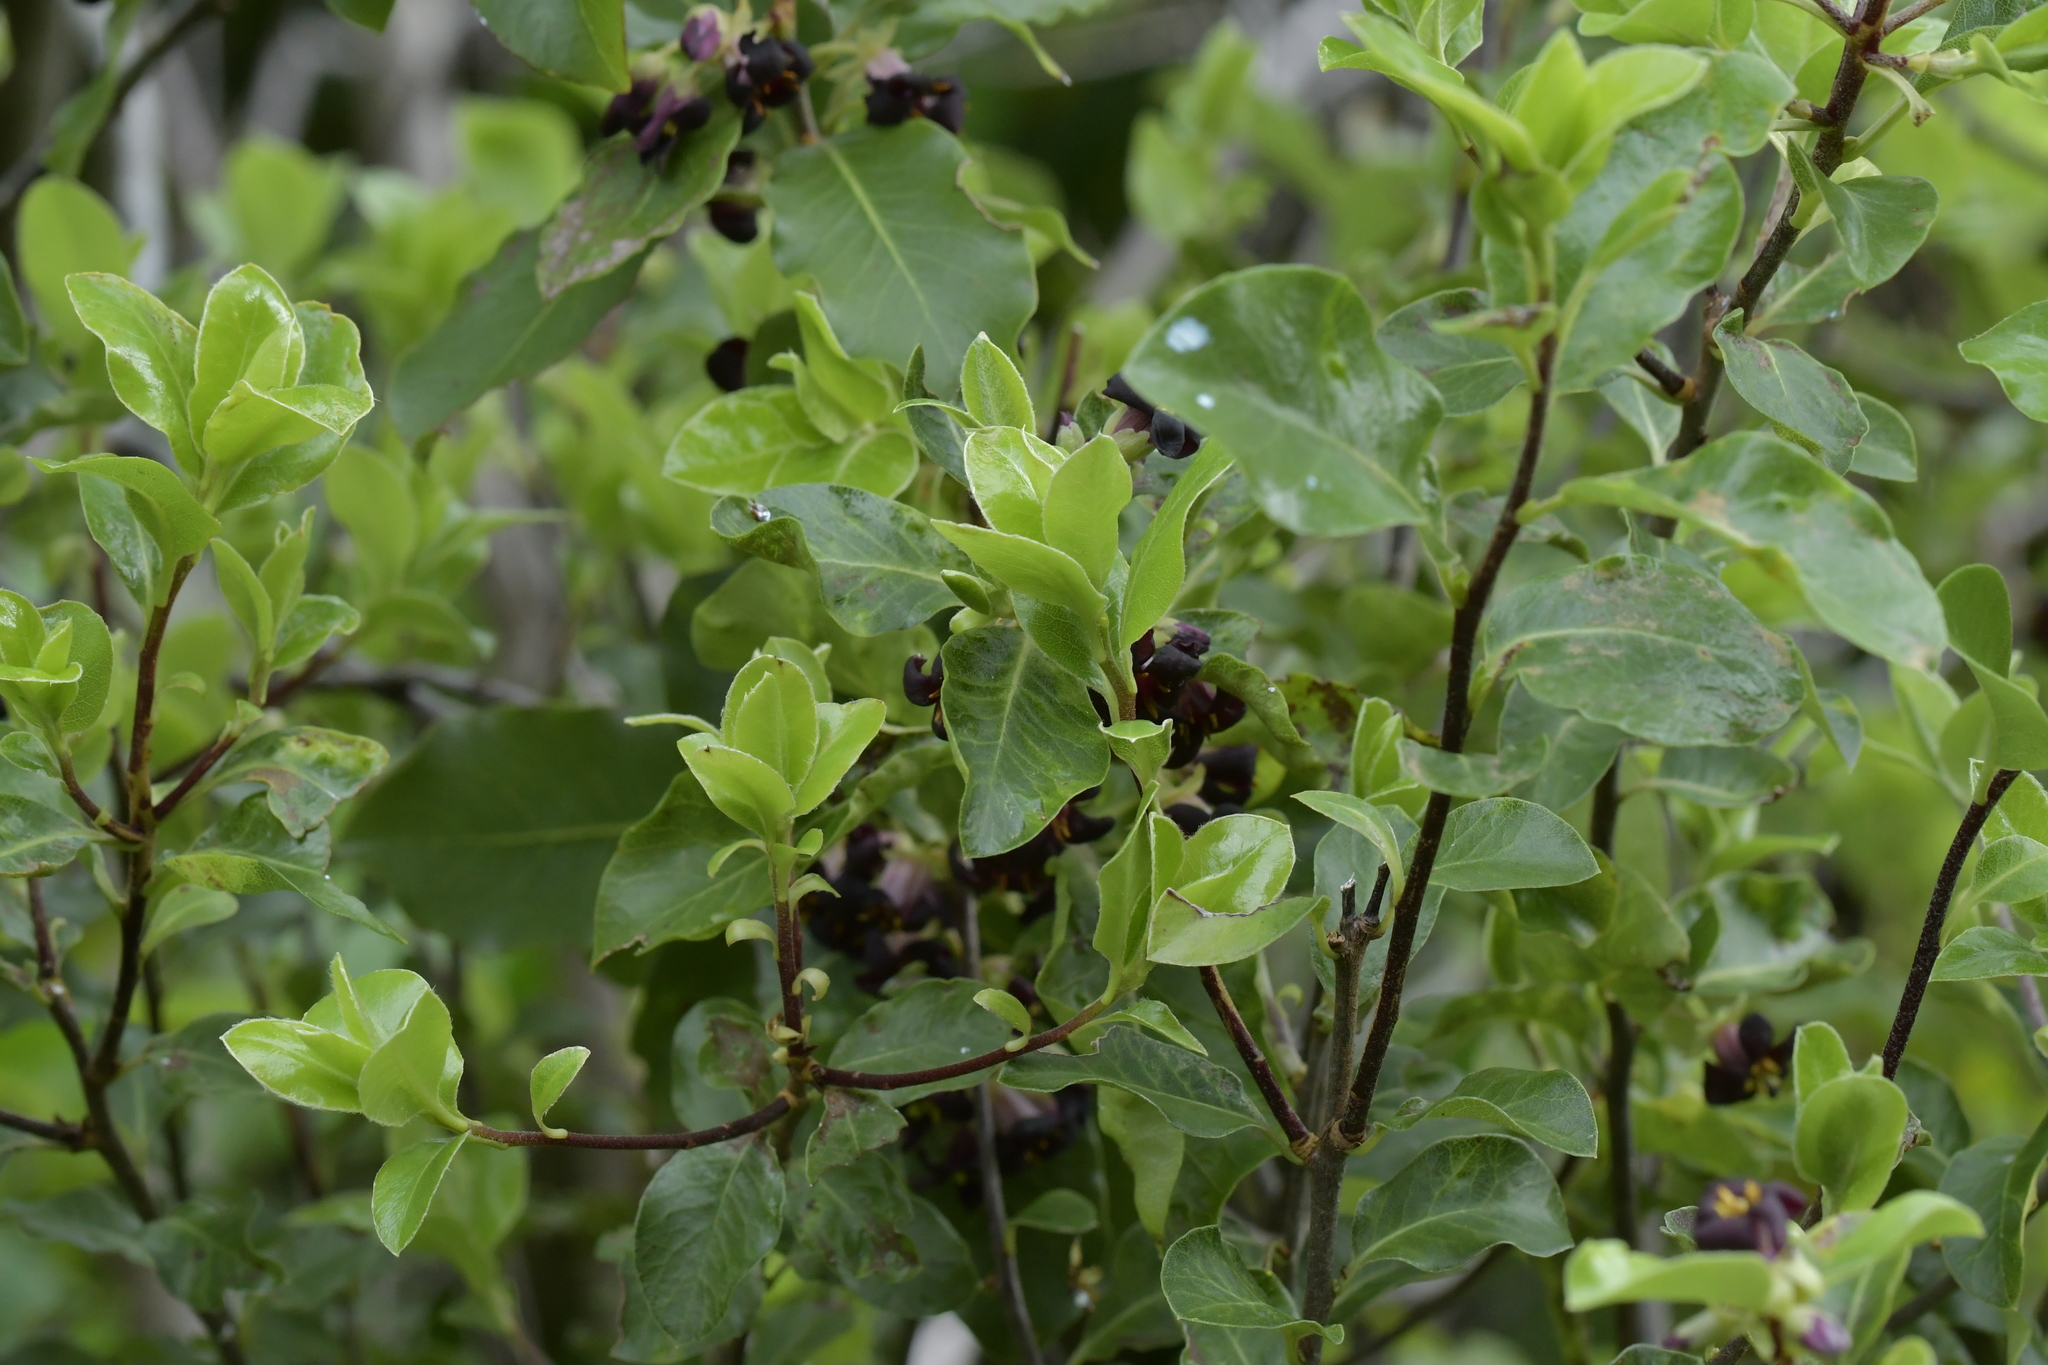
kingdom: Plantae
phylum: Tracheophyta
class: Magnoliopsida
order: Apiales
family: Pittosporaceae
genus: Pittosporum
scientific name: Pittosporum tenuifolium
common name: Kohuhu
